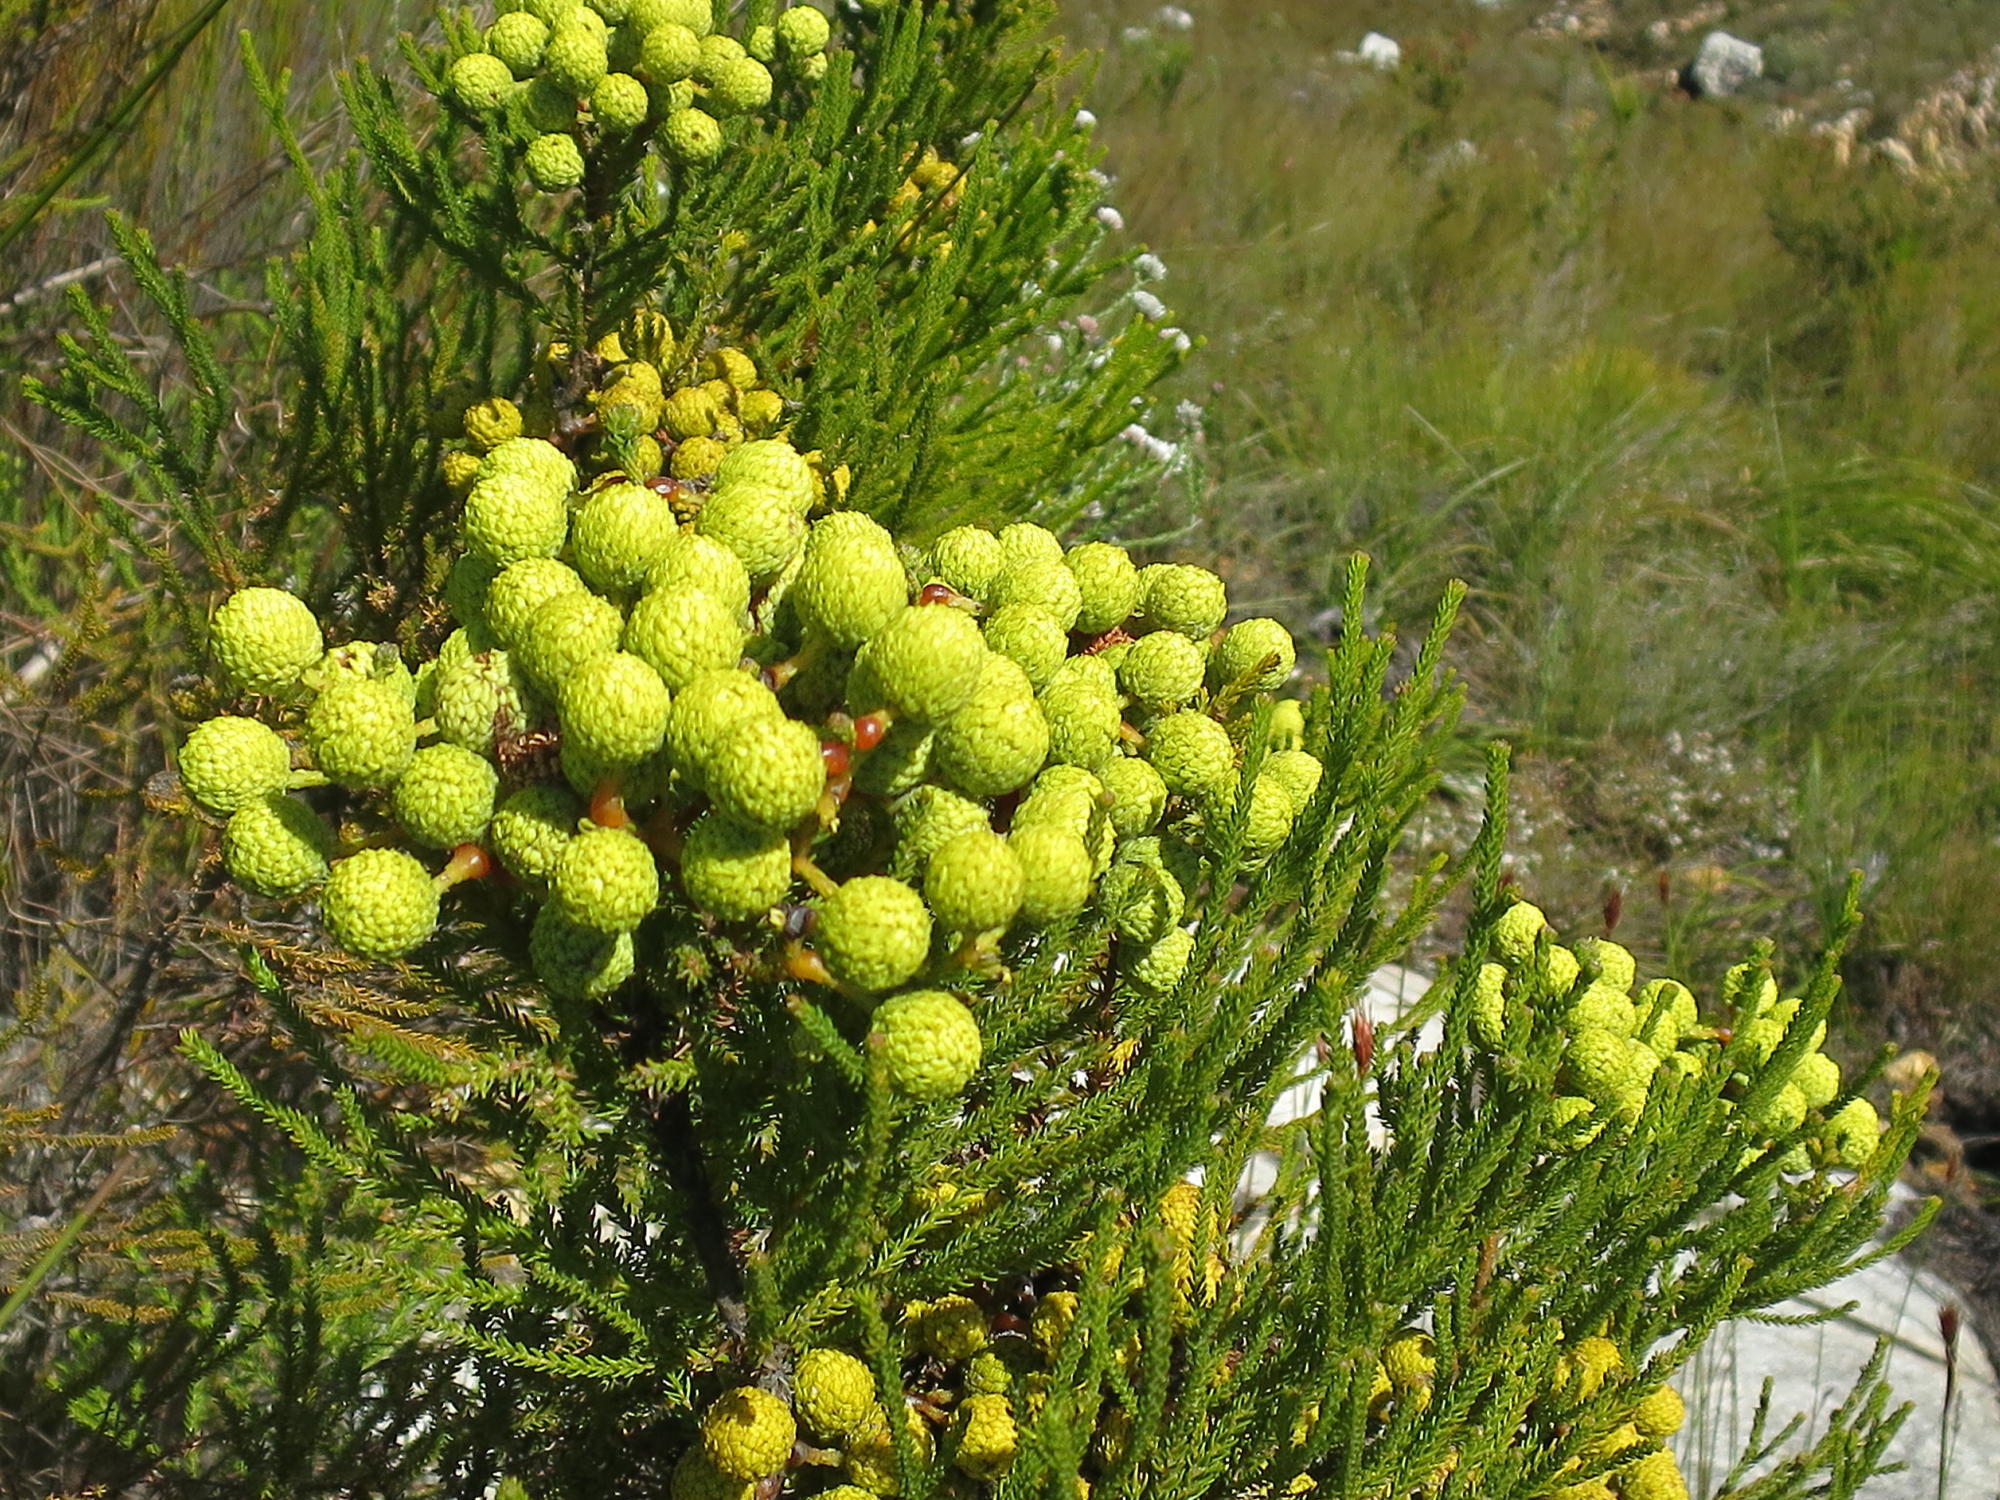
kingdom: Plantae
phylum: Tracheophyta
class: Magnoliopsida
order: Bruniales
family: Bruniaceae
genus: Berzelia
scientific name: Berzelia intermedia
